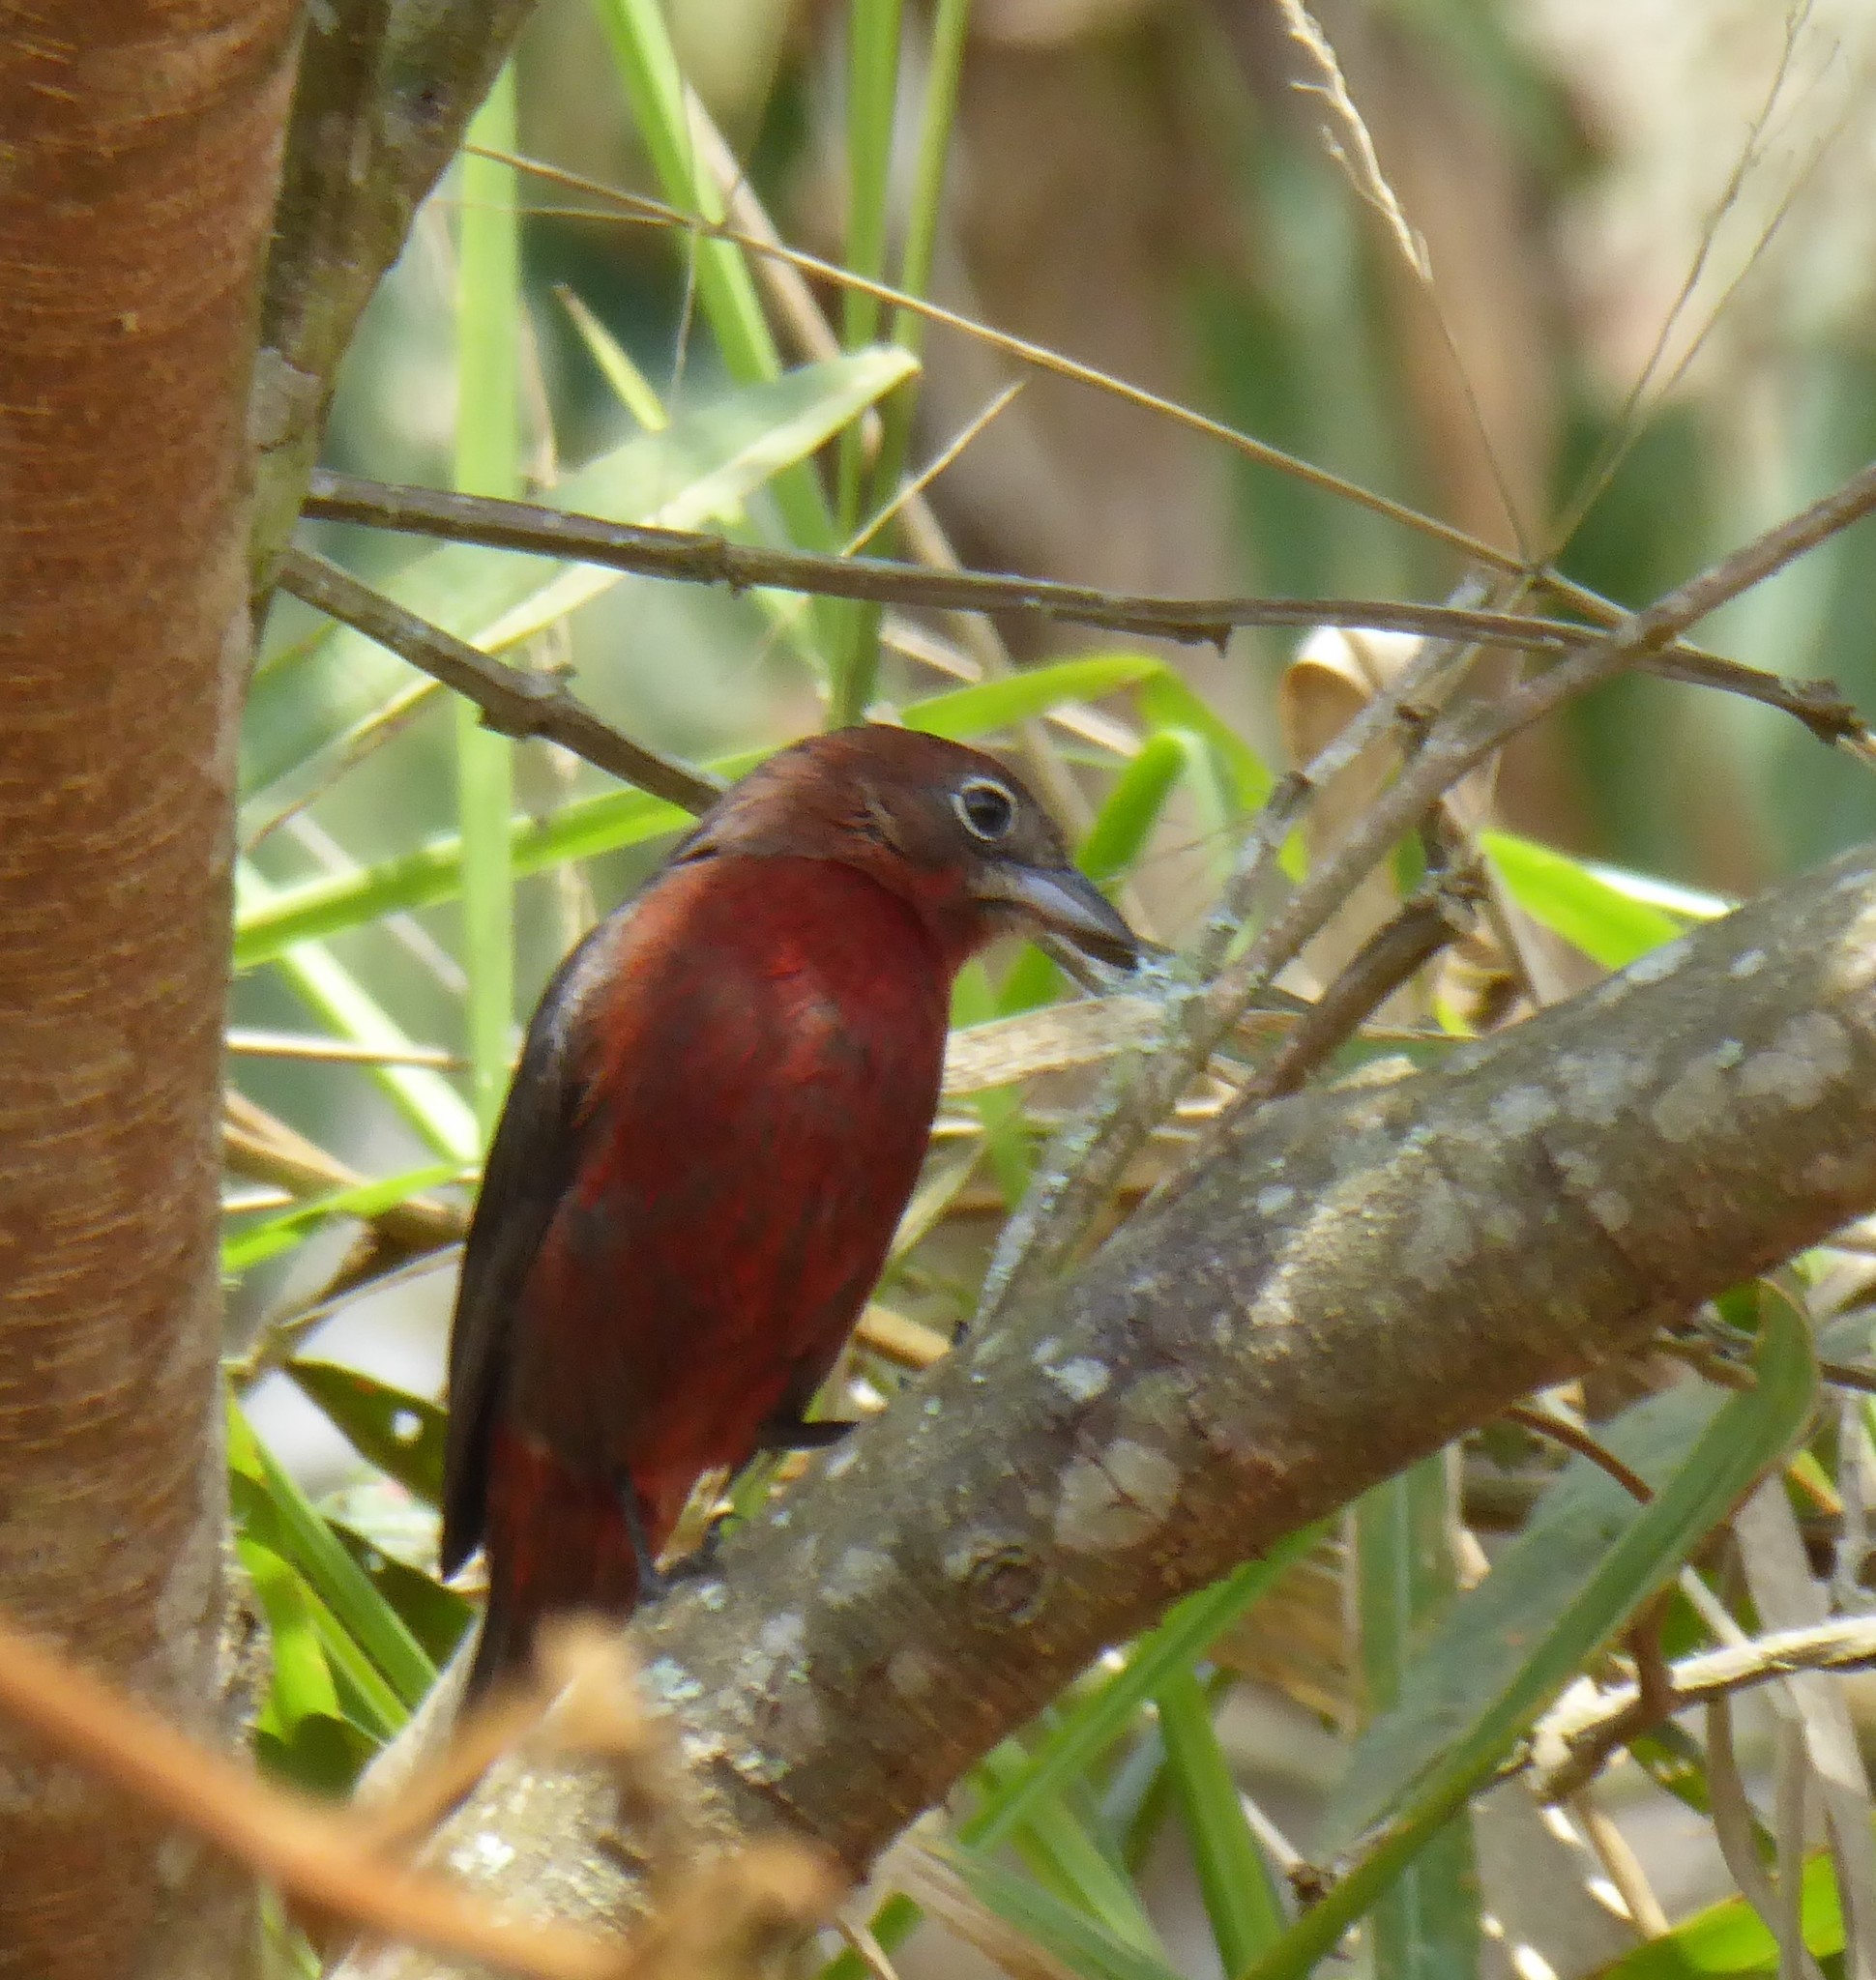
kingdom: Animalia
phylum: Chordata
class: Aves
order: Passeriformes
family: Thraupidae
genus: Coryphospingus
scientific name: Coryphospingus cucullatus
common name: Red pileated finch
